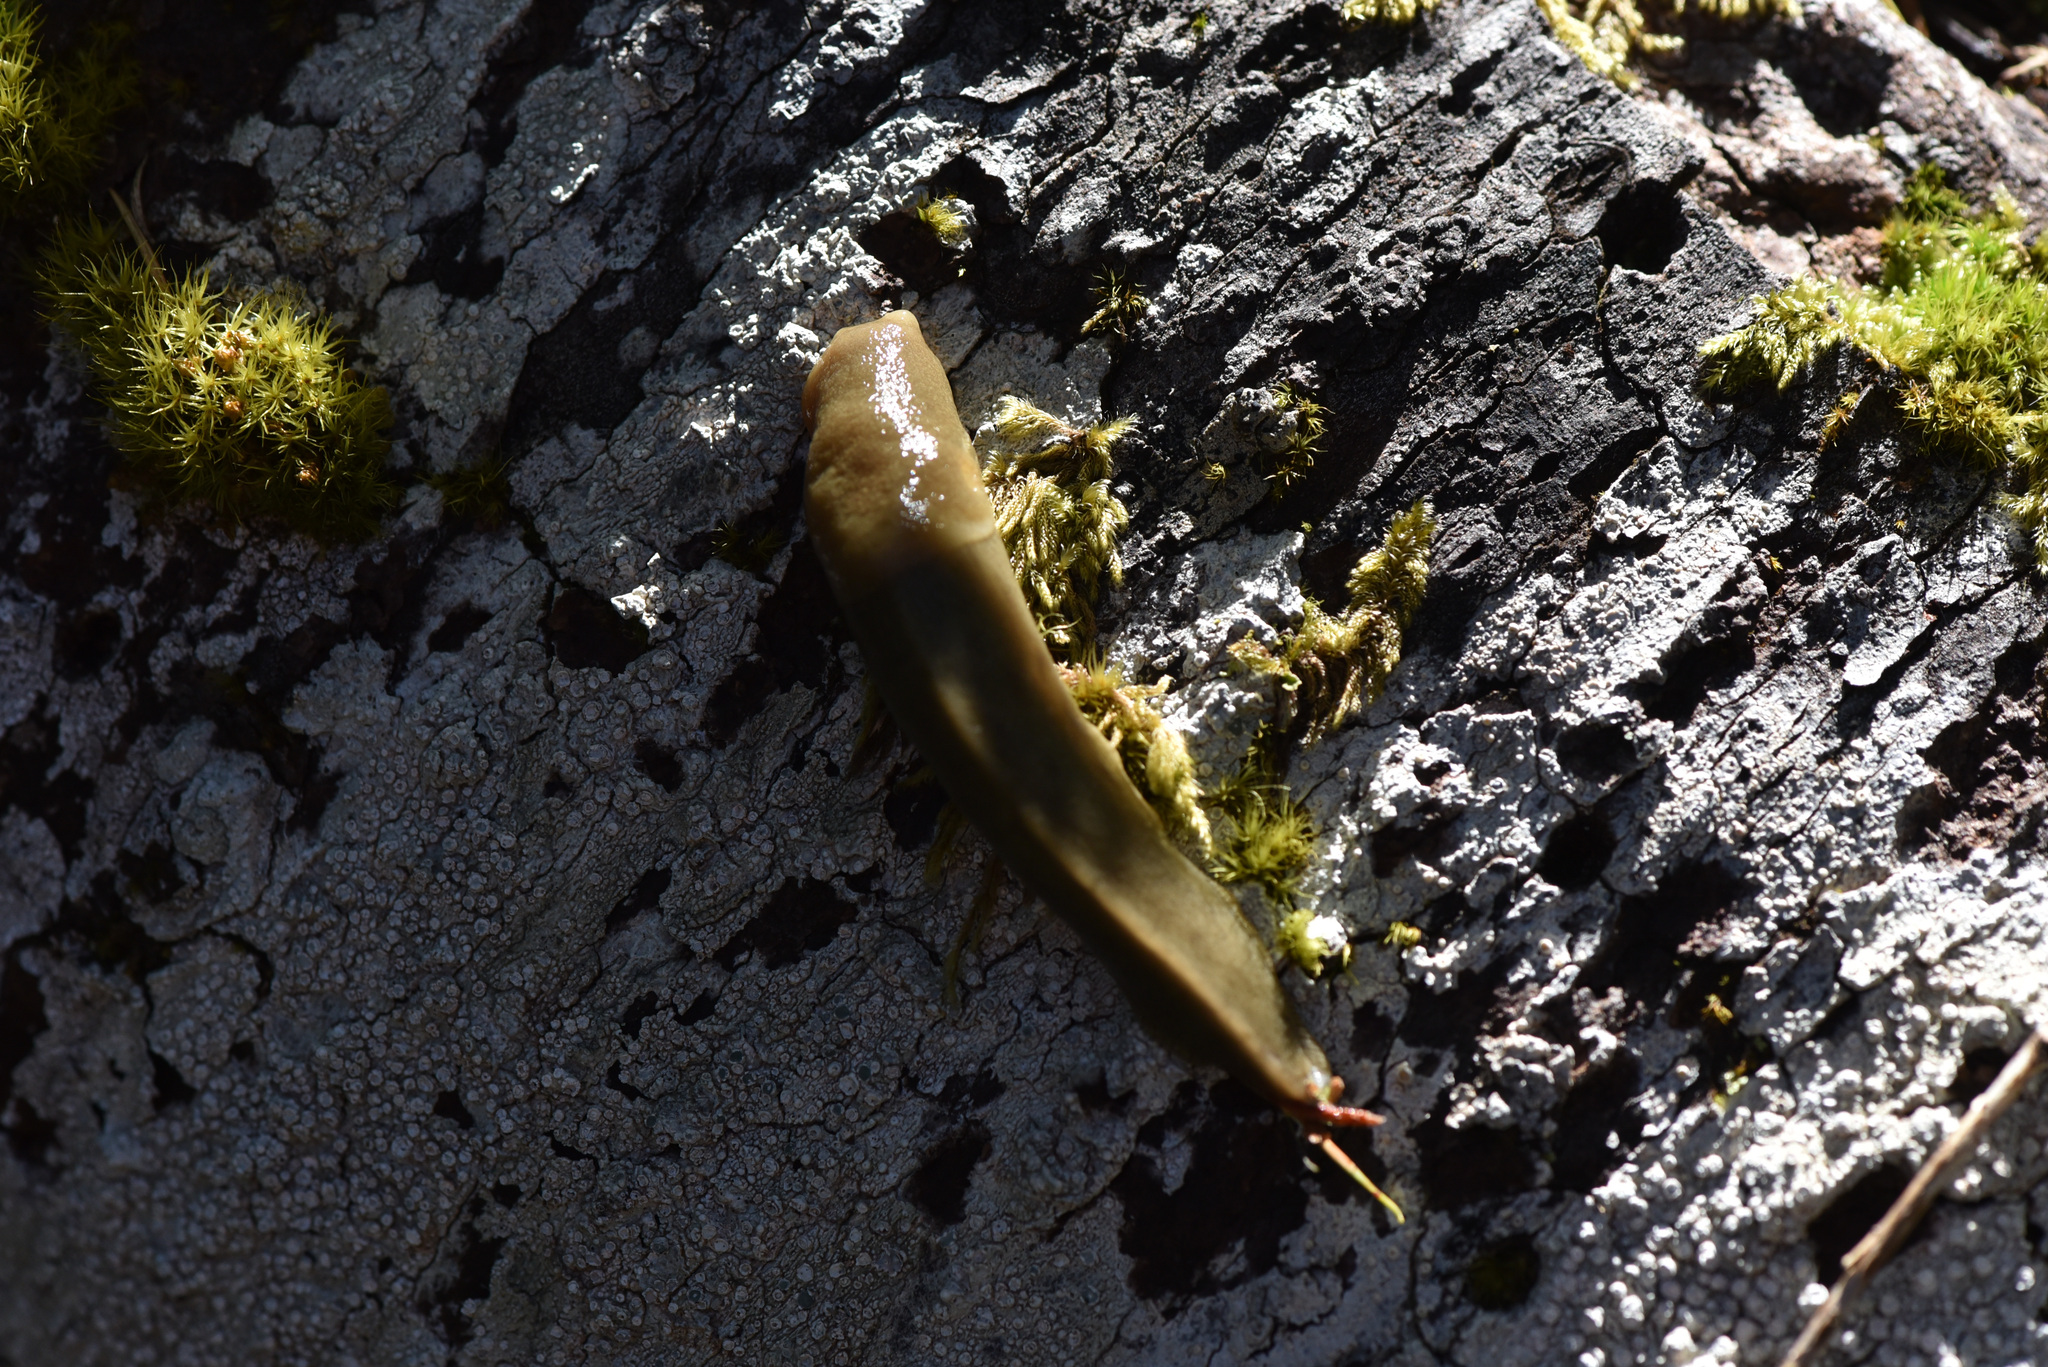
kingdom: Animalia
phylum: Mollusca
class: Gastropoda
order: Stylommatophora
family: Ariolimacidae
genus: Ariolimax
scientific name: Ariolimax columbianus
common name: Pacific banana slug
